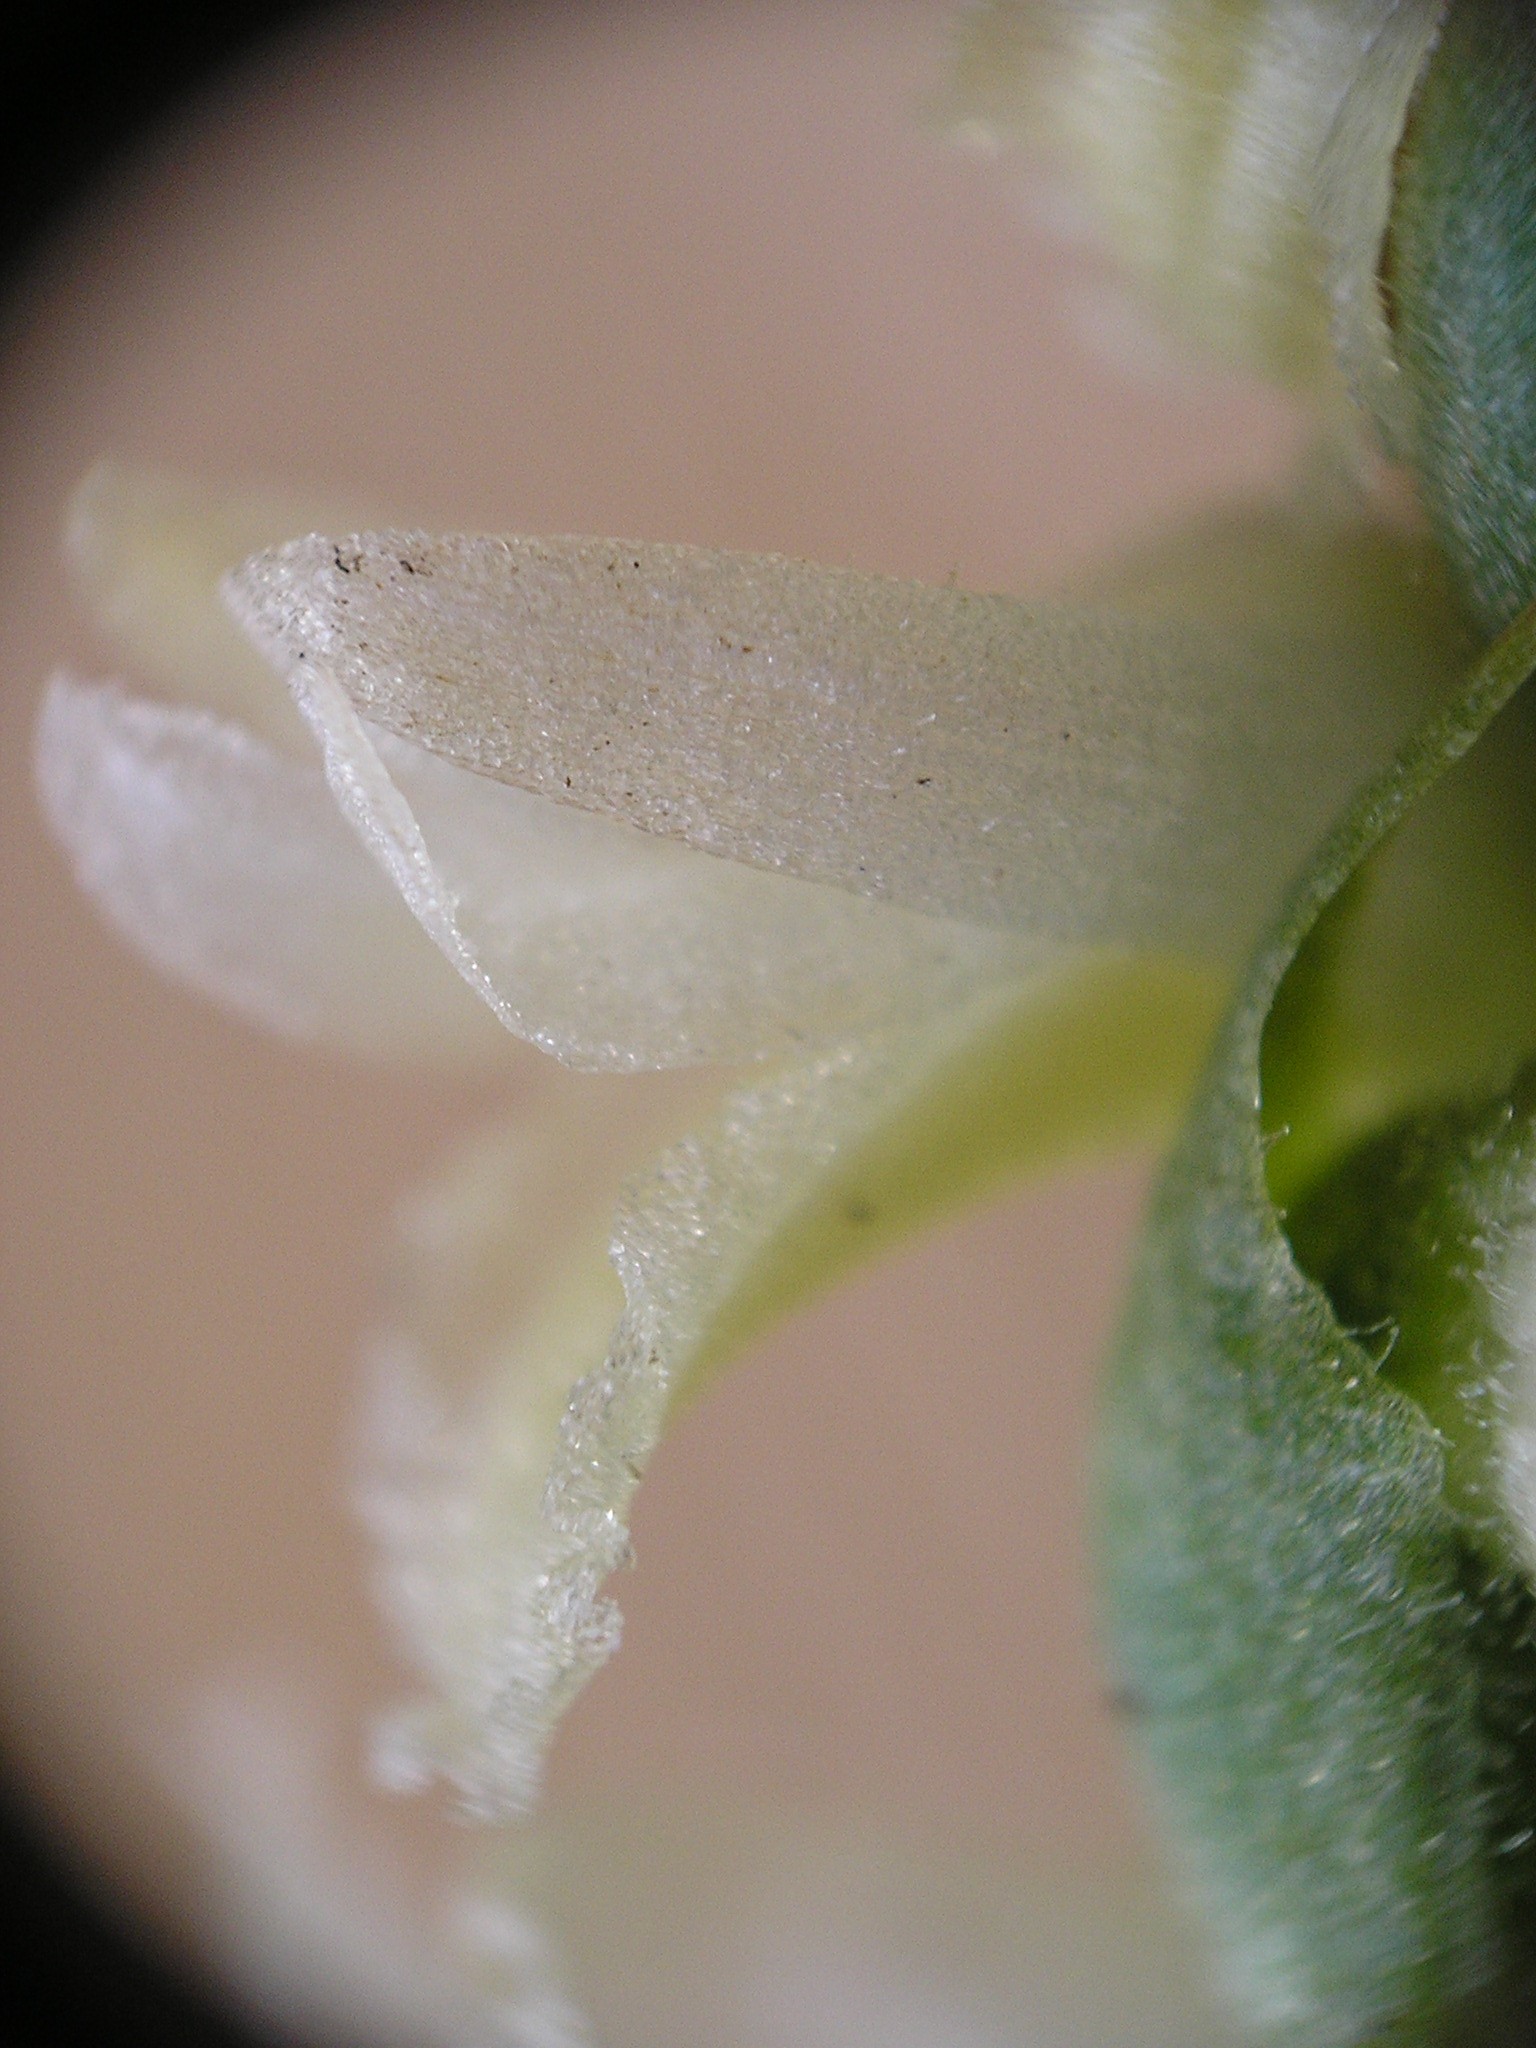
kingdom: Plantae
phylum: Tracheophyta
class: Liliopsida
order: Asparagales
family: Orchidaceae
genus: Spiranthes
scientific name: Spiranthes magnicamporum
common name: Great plains ladies'-tresses
